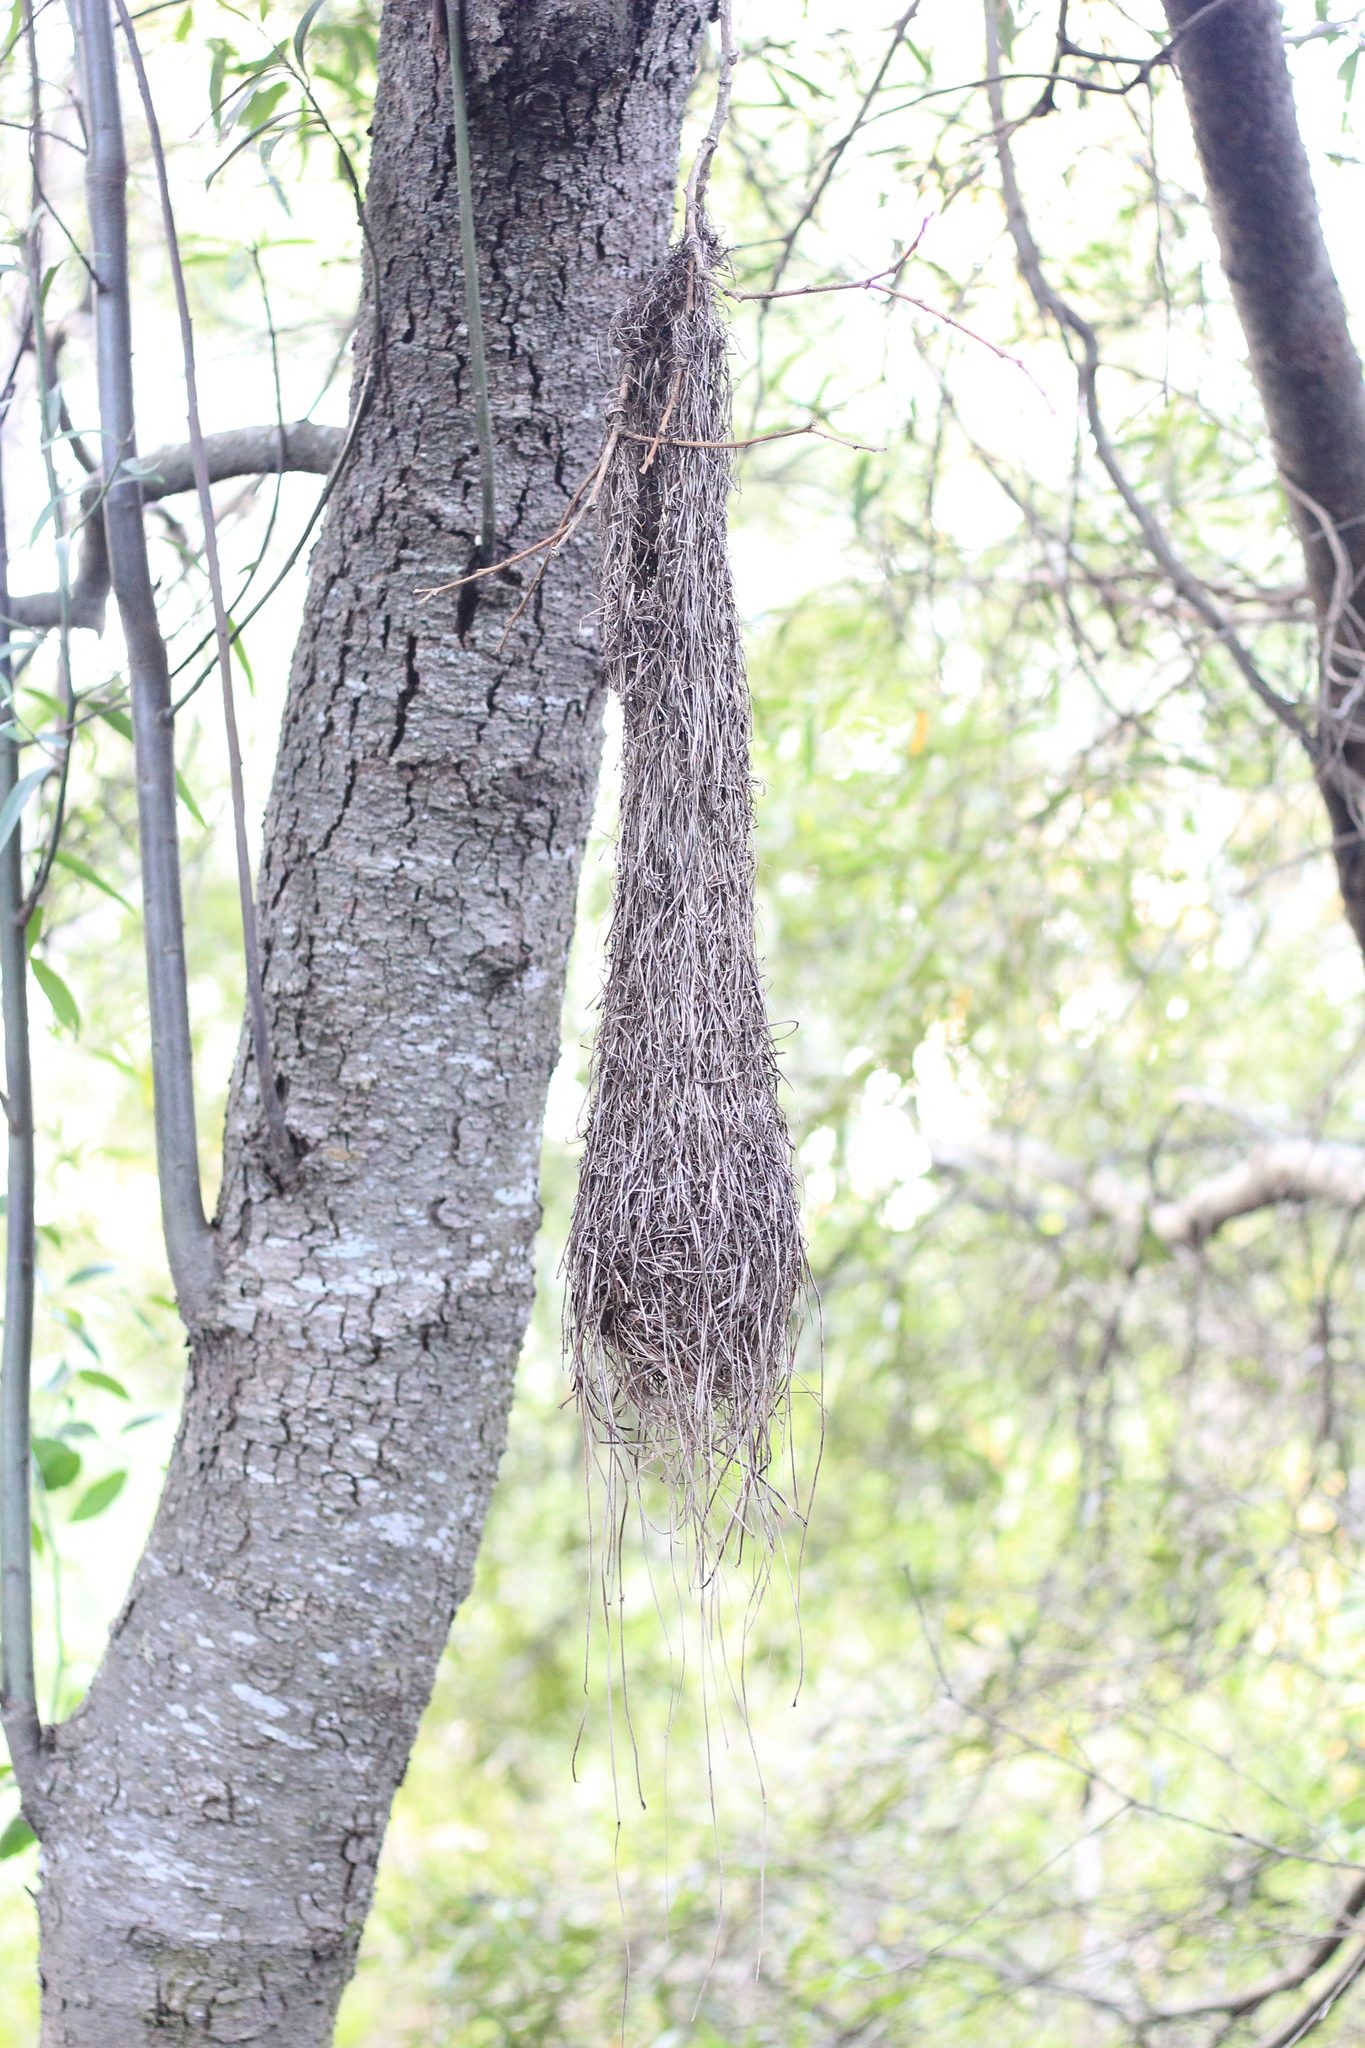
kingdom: Animalia
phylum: Chordata
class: Aves
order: Passeriformes
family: Icteridae
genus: Cacicus
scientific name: Cacicus solitarius
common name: Solitary cacique
